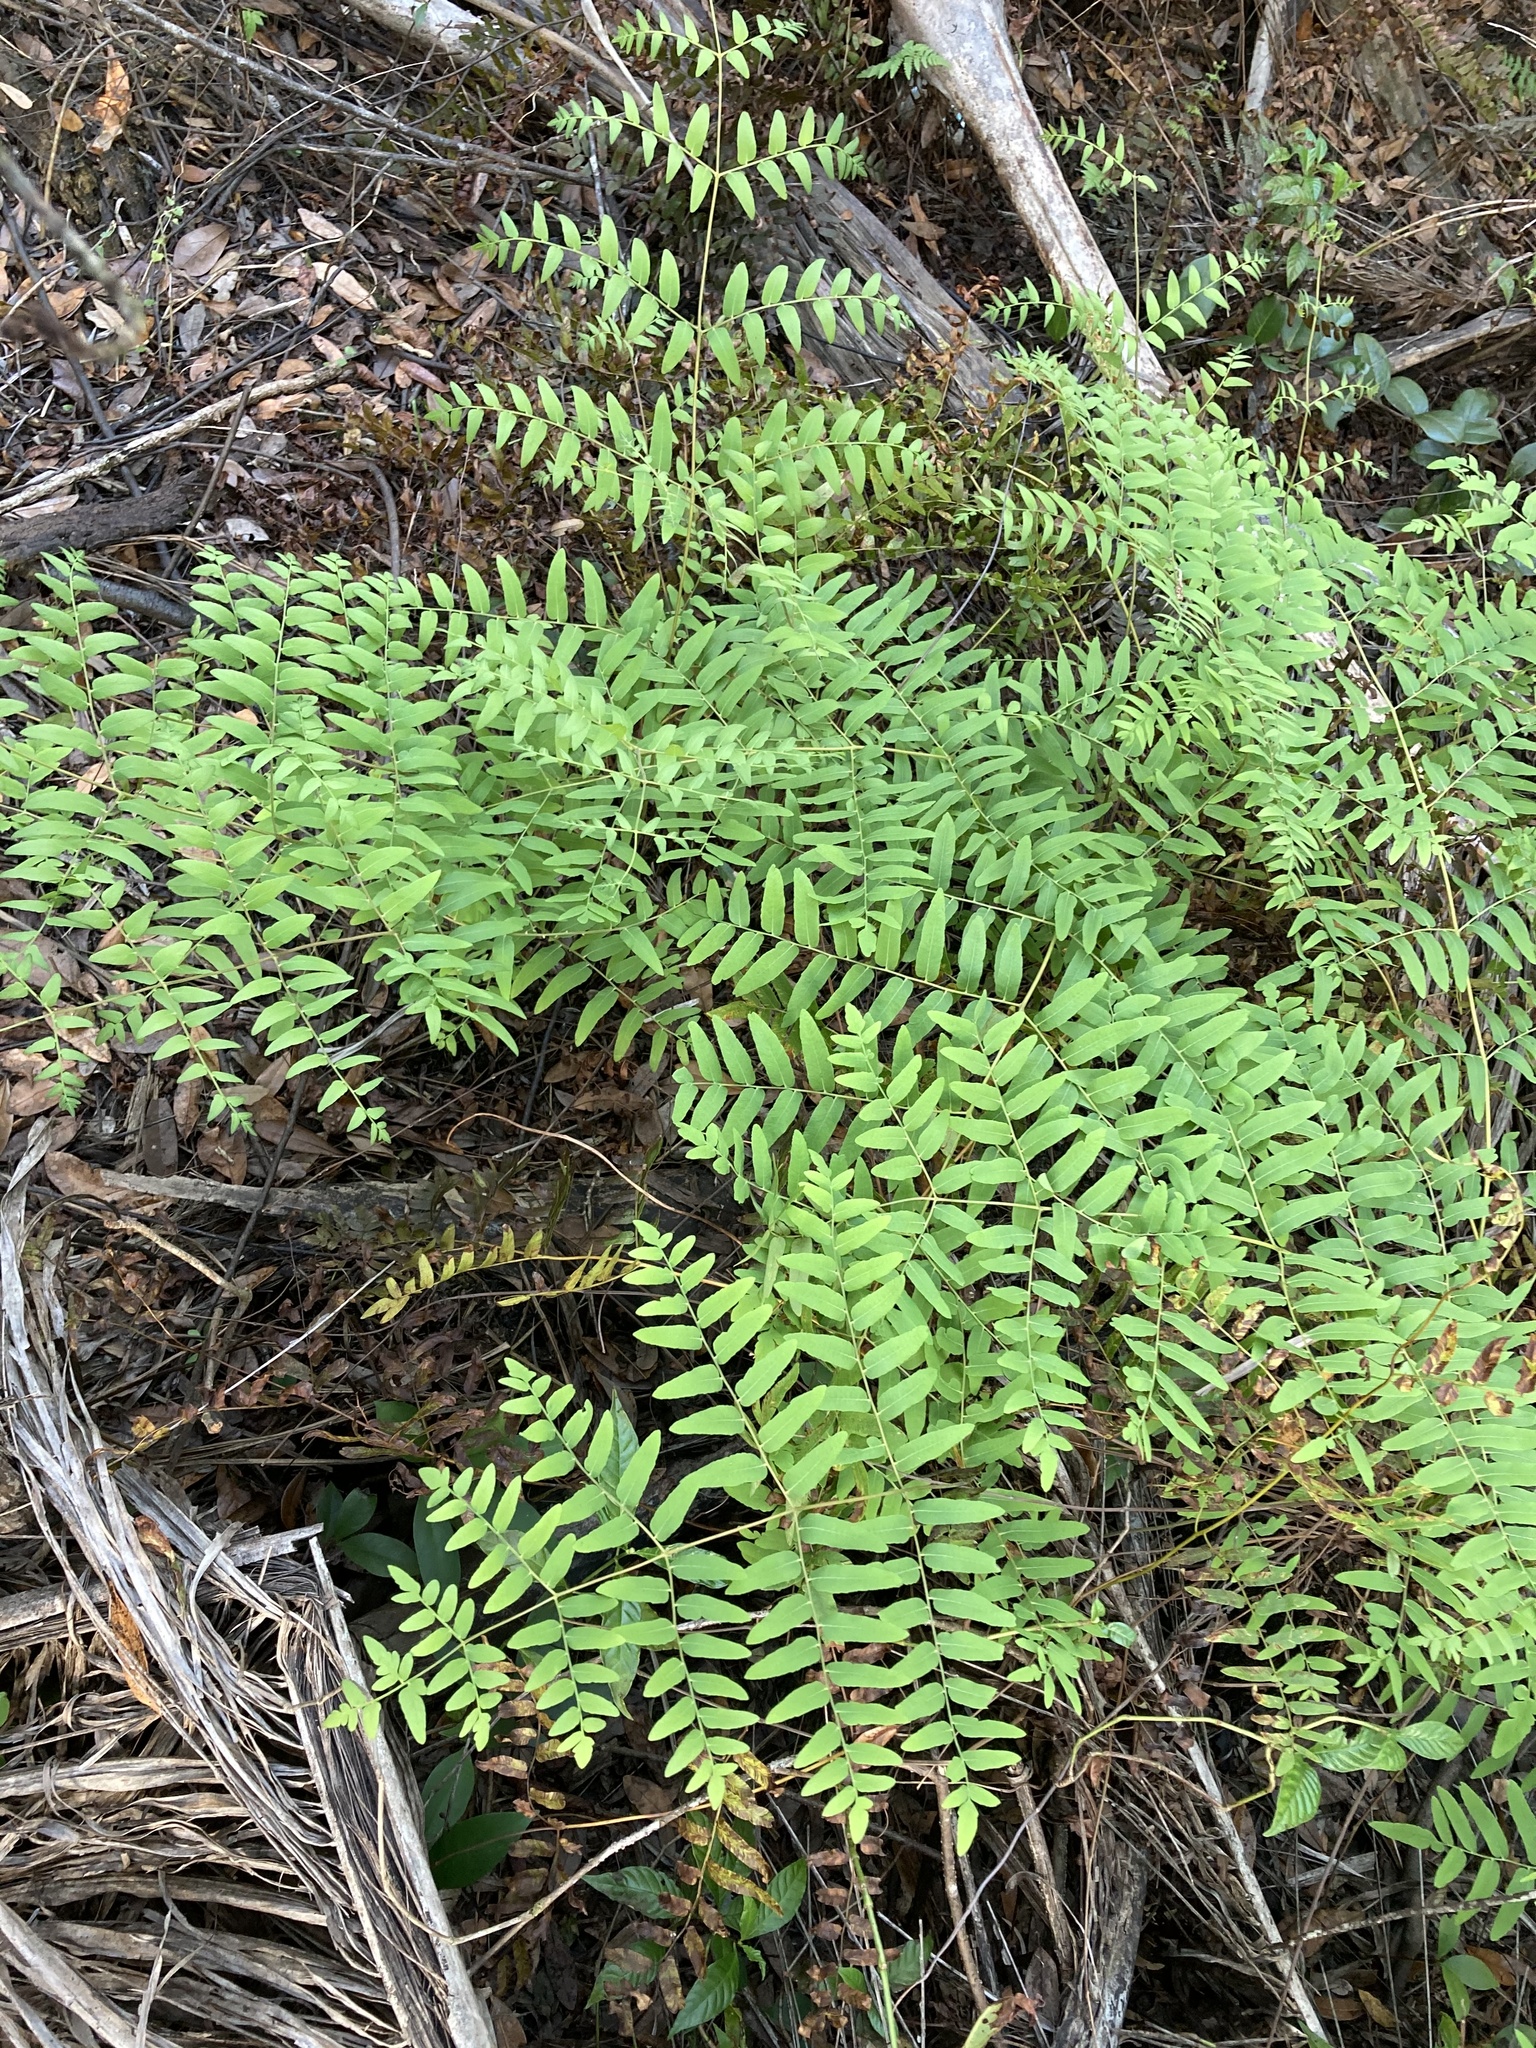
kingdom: Plantae
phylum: Tracheophyta
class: Polypodiopsida
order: Osmundales
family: Osmundaceae
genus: Osmunda
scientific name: Osmunda spectabilis
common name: American royal fern
